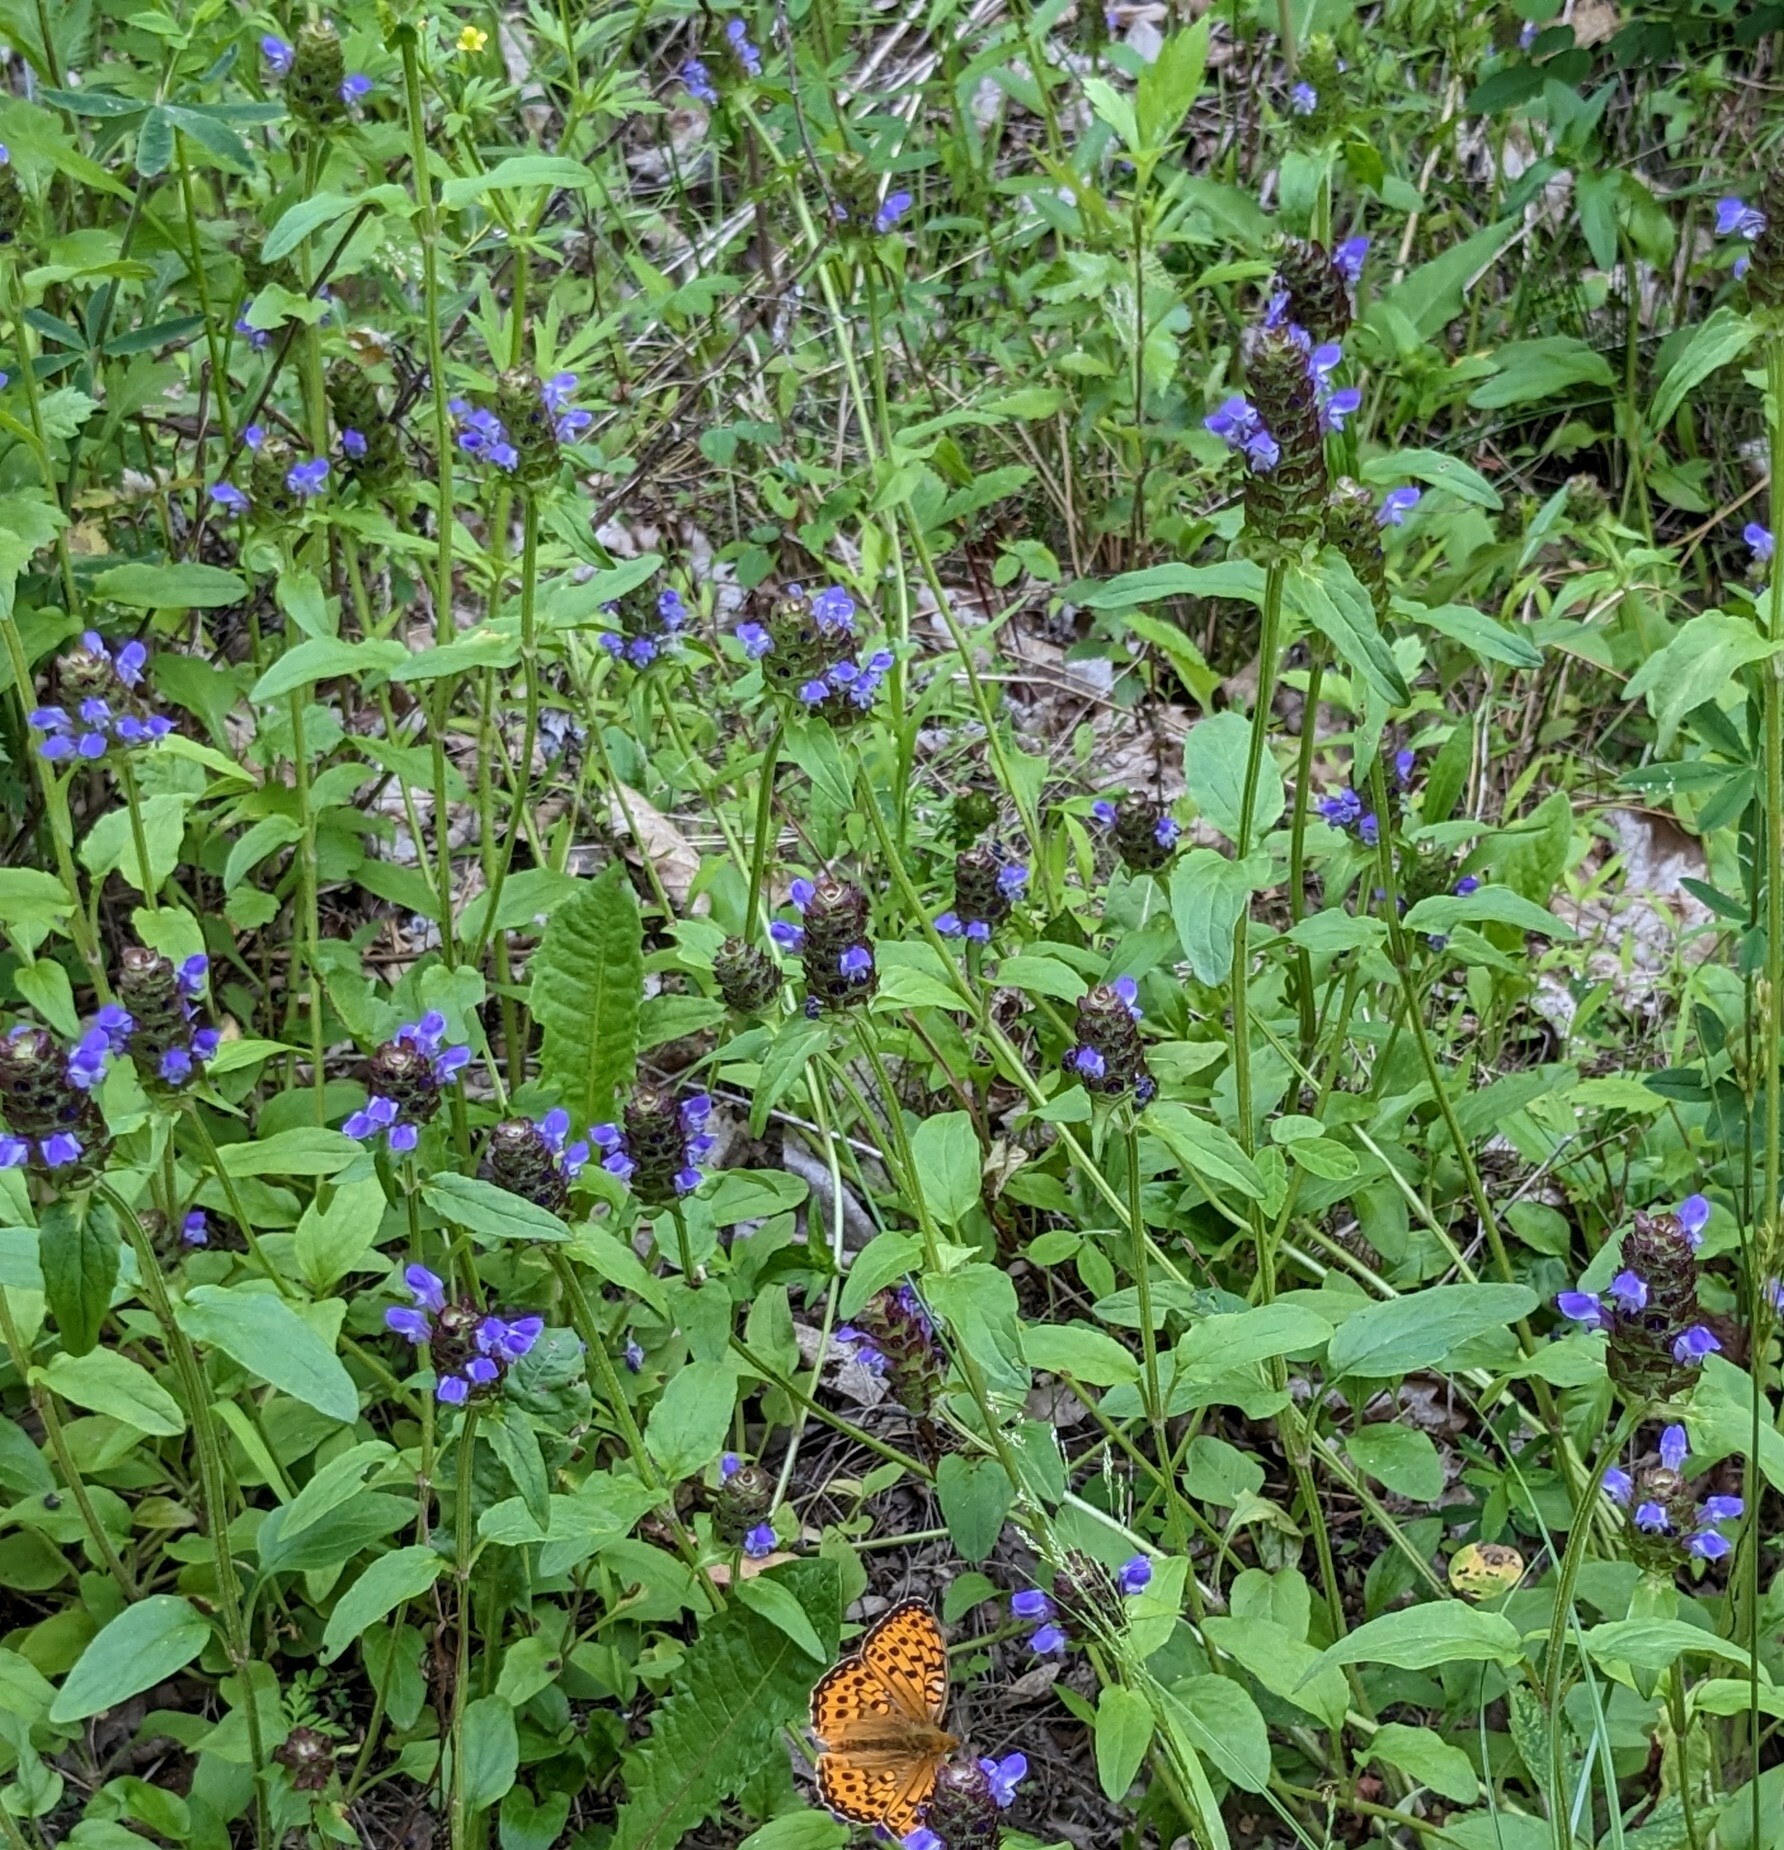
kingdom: Plantae
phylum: Tracheophyta
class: Magnoliopsida
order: Lamiales
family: Lamiaceae
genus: Prunella
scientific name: Prunella vulgaris
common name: Heal-all
